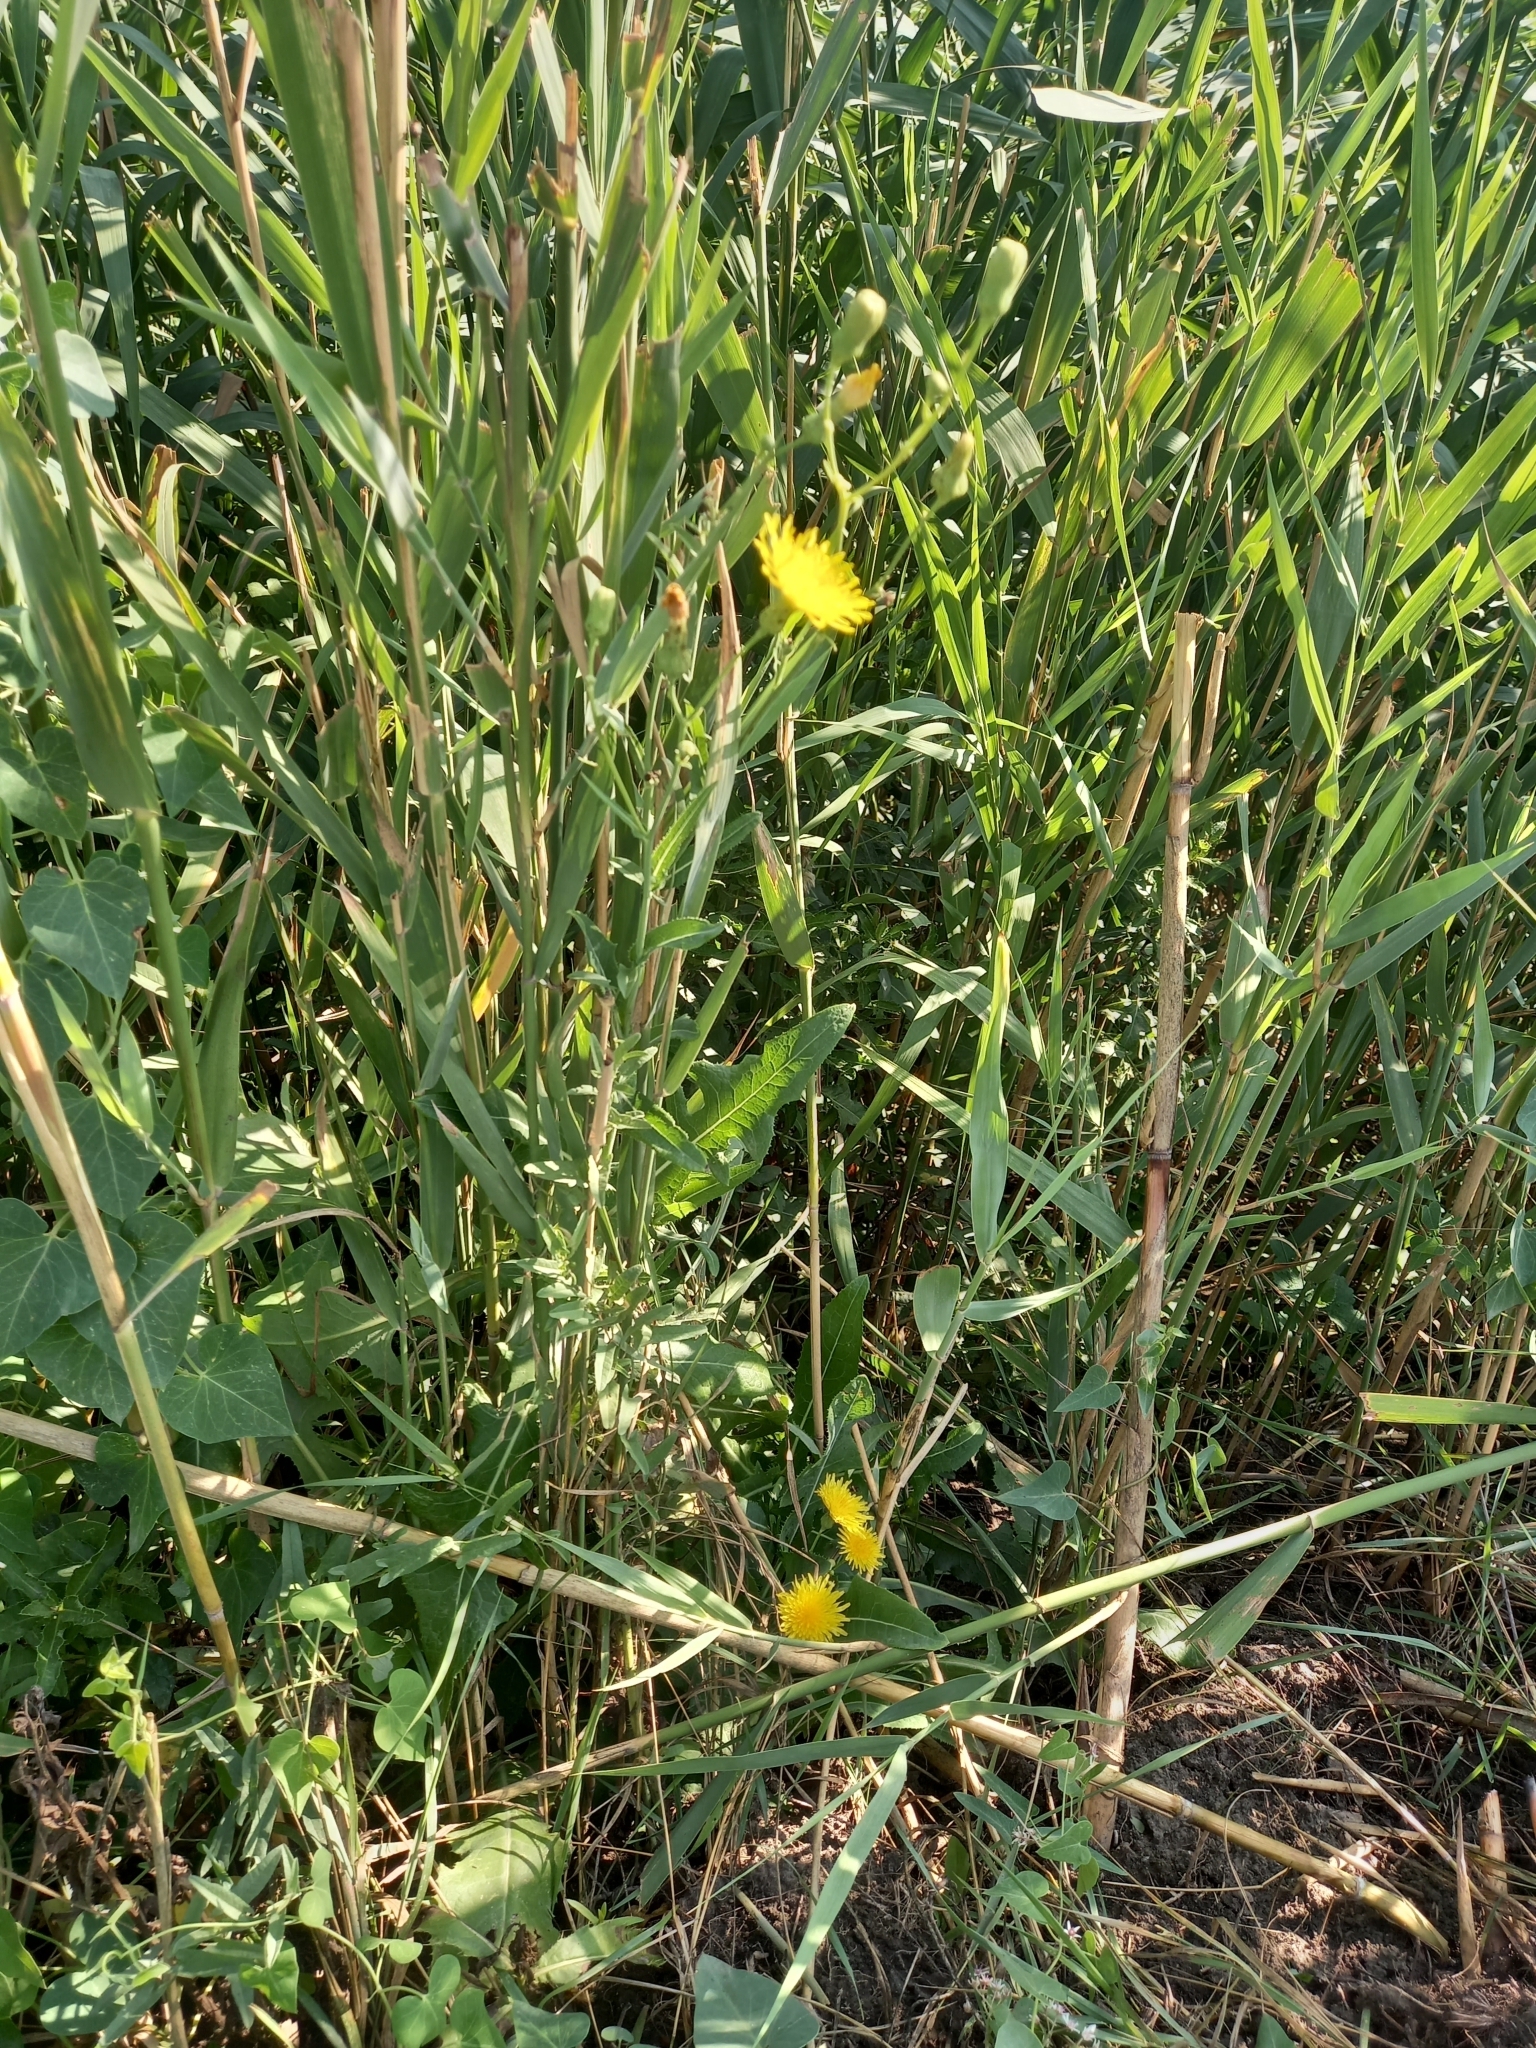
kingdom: Plantae
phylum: Tracheophyta
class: Magnoliopsida
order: Asterales
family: Asteraceae
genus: Sonchus
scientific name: Sonchus arvensis
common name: Perennial sow-thistle
